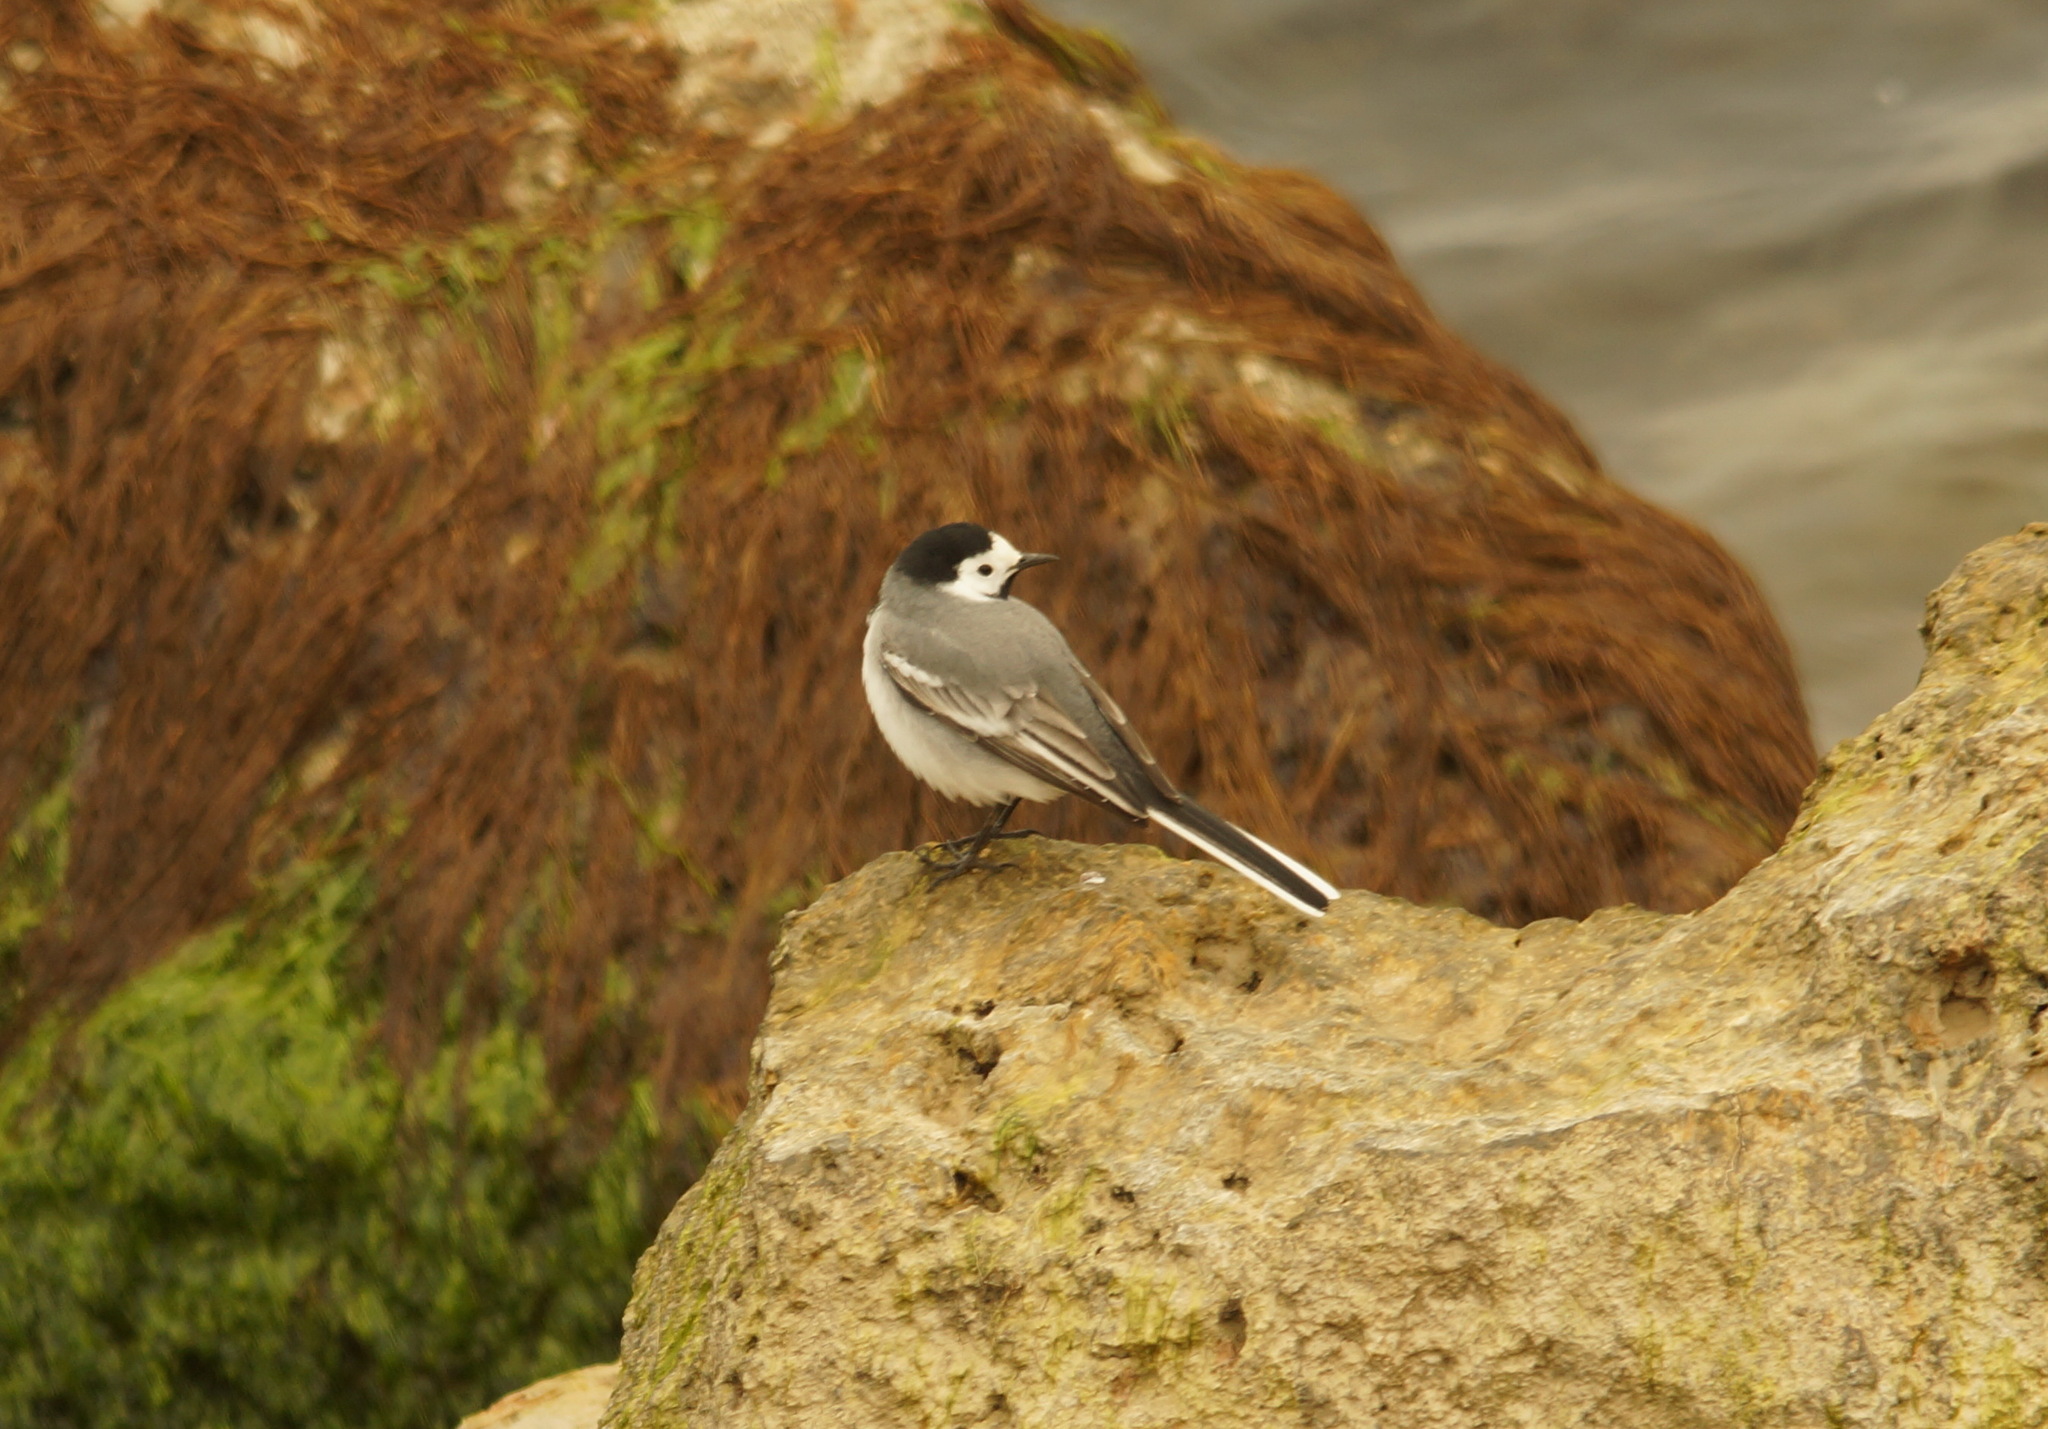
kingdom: Animalia
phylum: Chordata
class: Aves
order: Passeriformes
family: Motacillidae
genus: Motacilla
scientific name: Motacilla alba
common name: White wagtail
